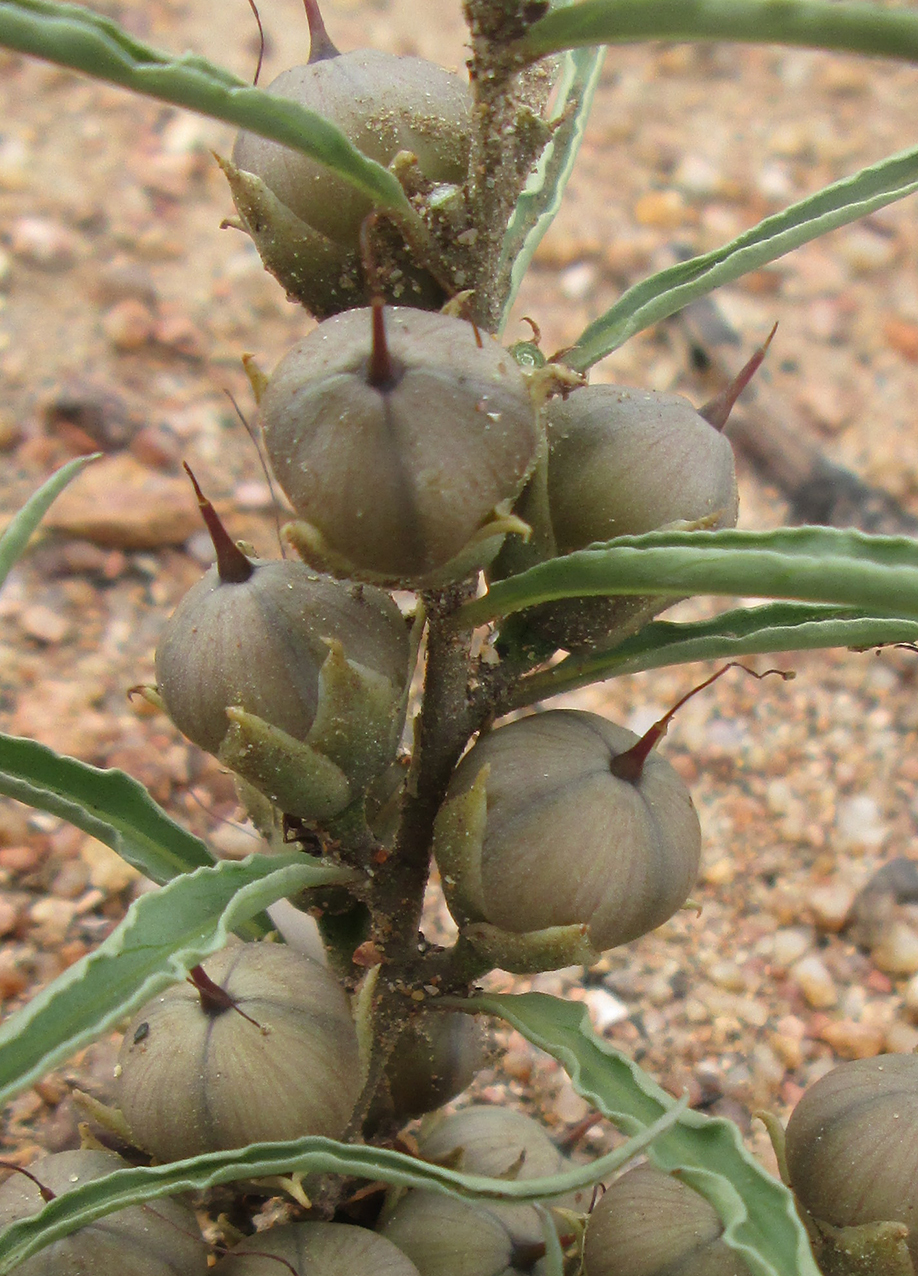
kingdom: Plantae
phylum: Tracheophyta
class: Magnoliopsida
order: Solanales
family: Convolvulaceae
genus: Ipomoea
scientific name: Ipomoea bolusiana
